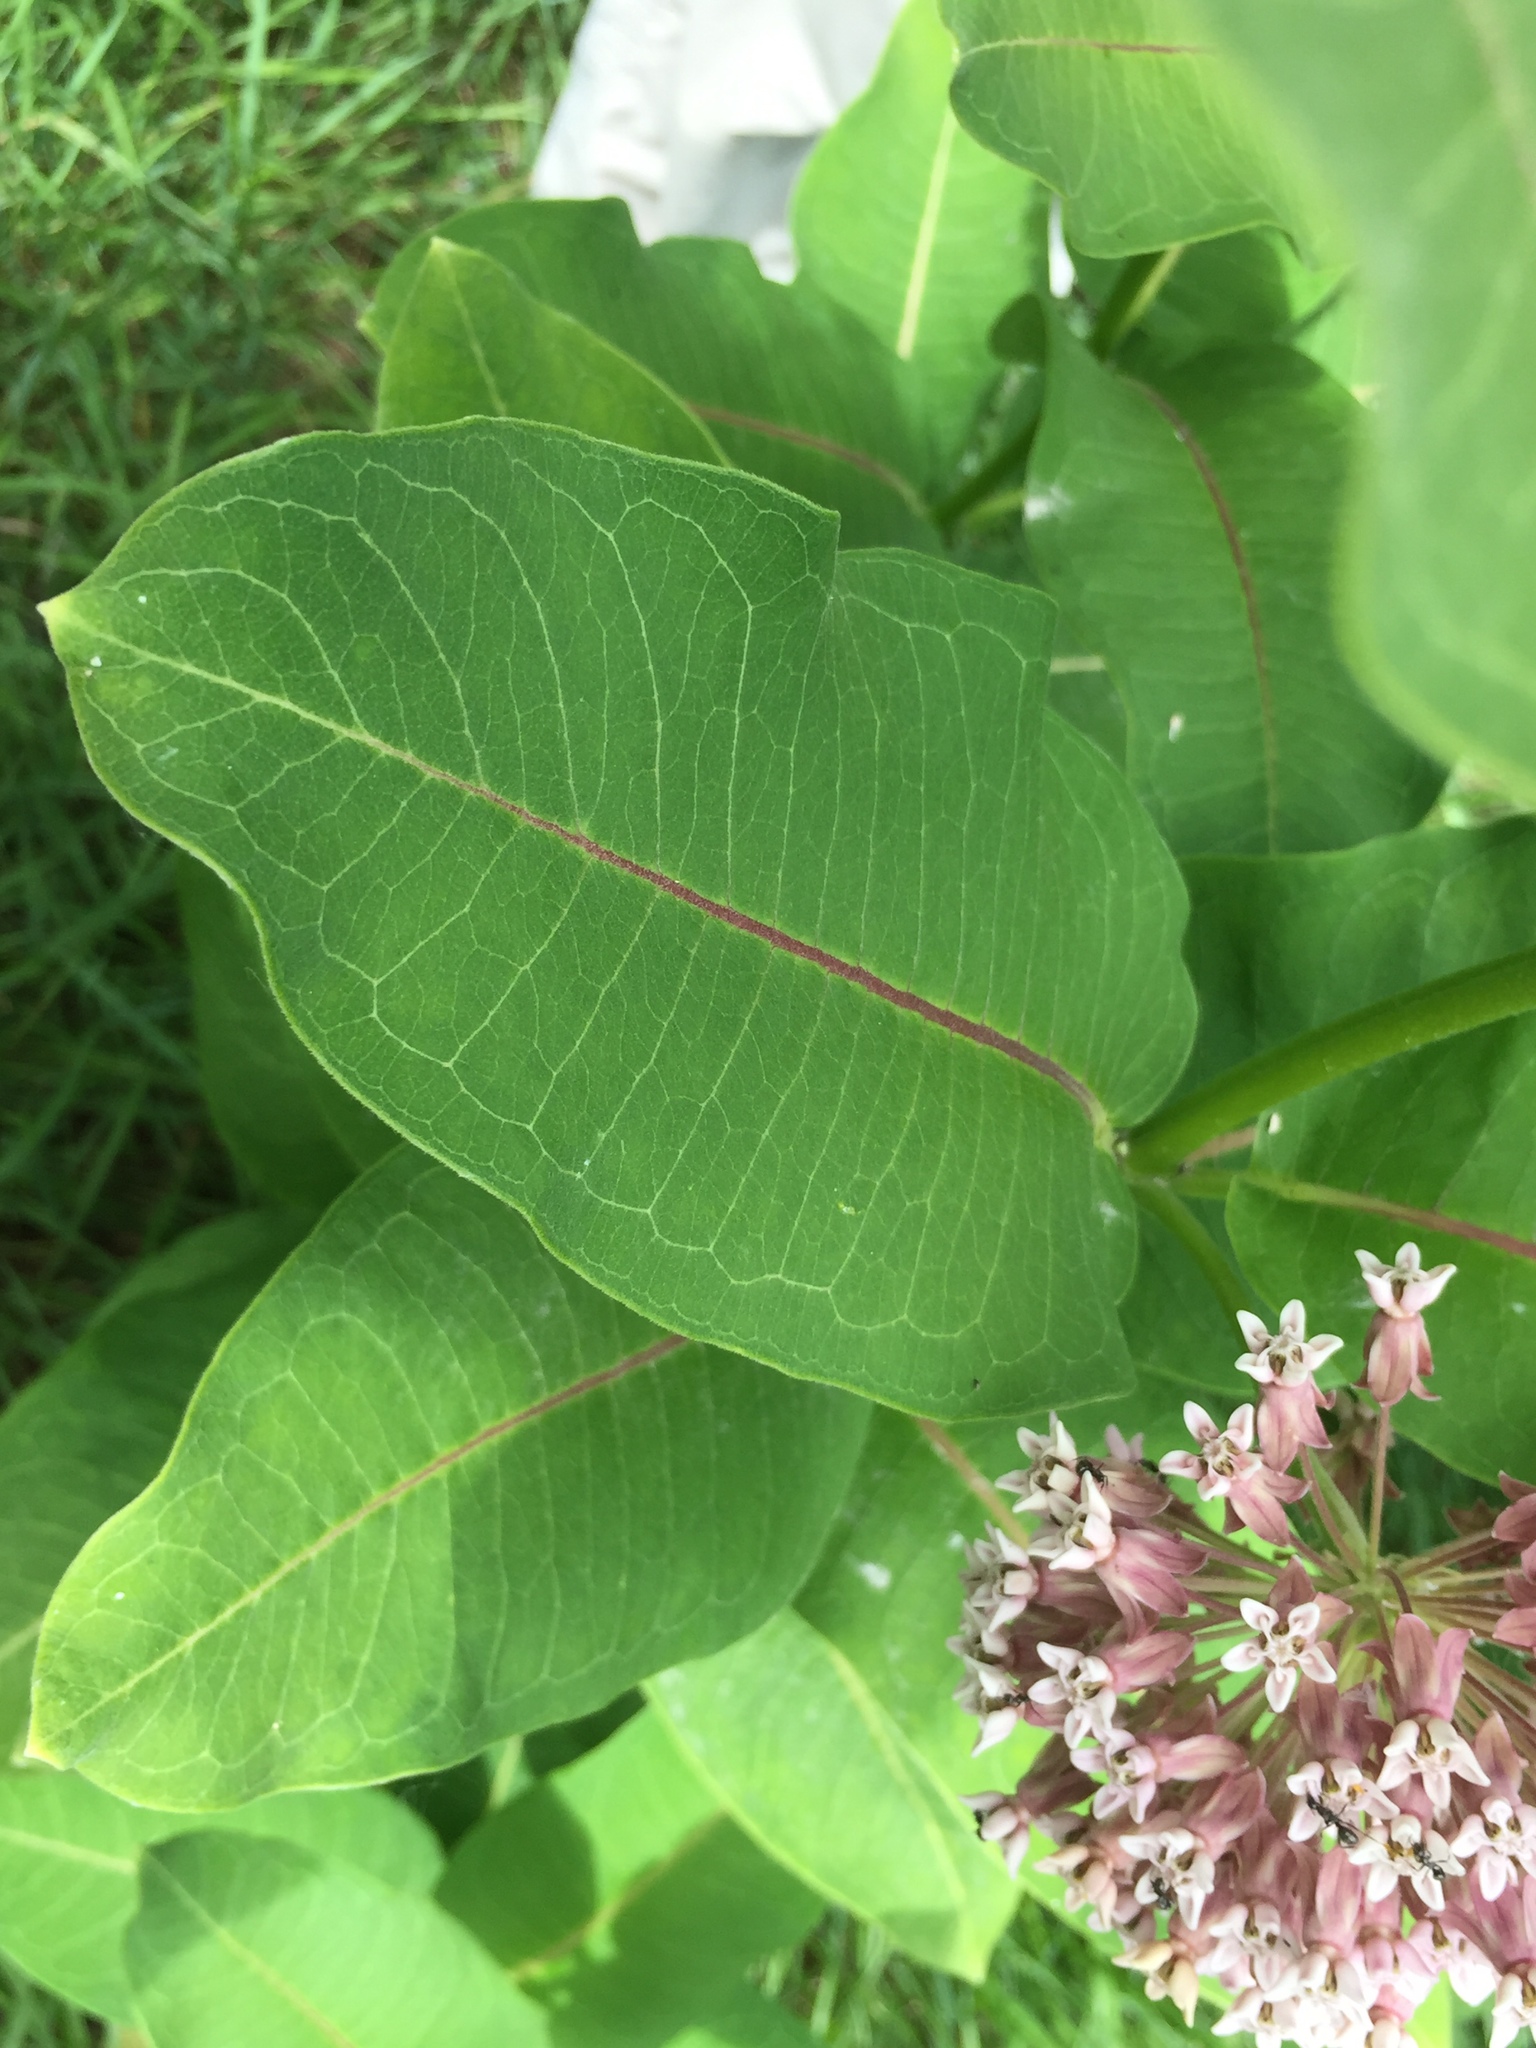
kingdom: Plantae
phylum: Tracheophyta
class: Magnoliopsida
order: Gentianales
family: Apocynaceae
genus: Asclepias
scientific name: Asclepias syriaca
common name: Common milkweed
